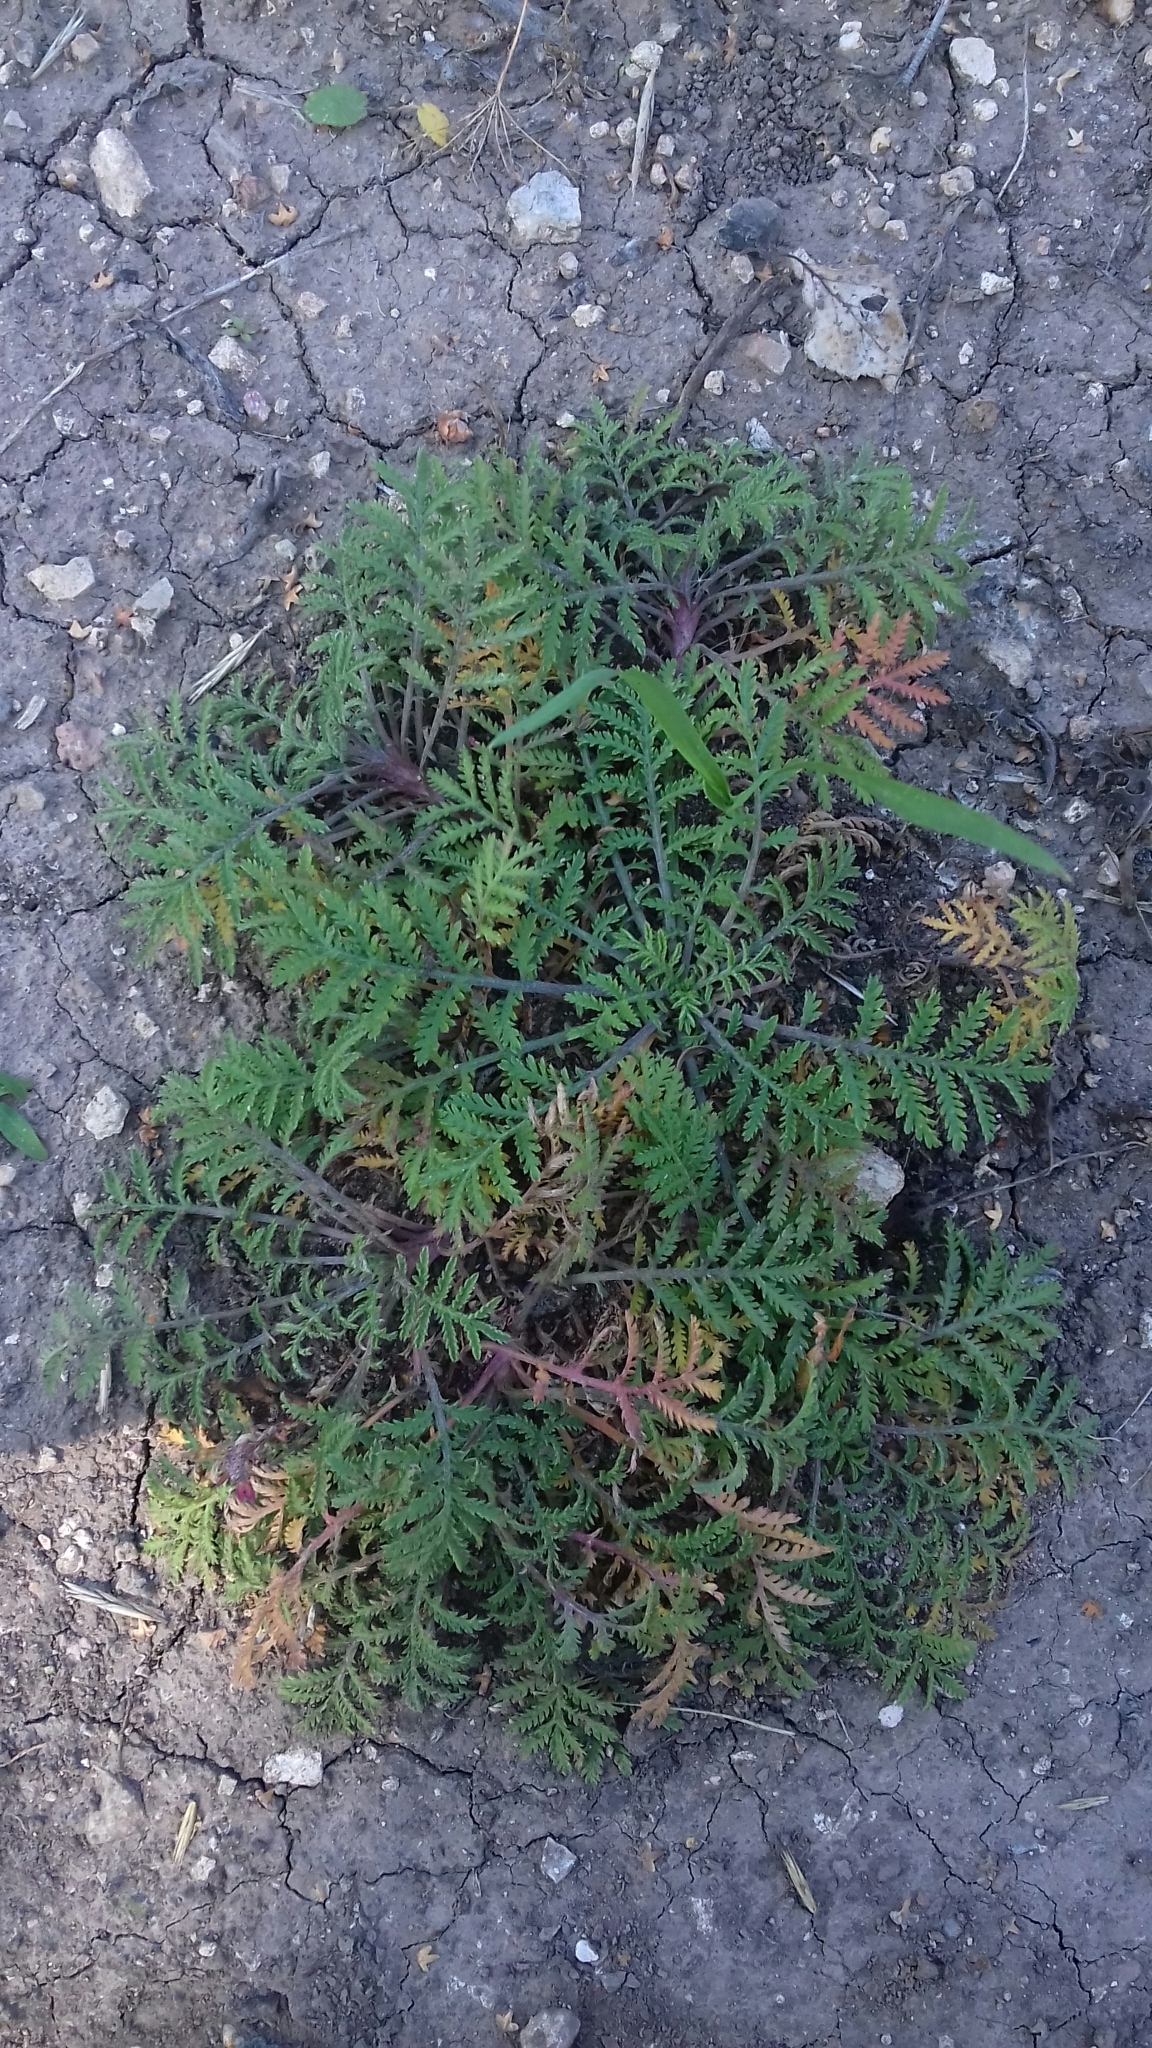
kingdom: Plantae
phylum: Tracheophyta
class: Magnoliopsida
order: Asterales
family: Asteraceae
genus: Achillea
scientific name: Achillea nobilis
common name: Noble yarrow
